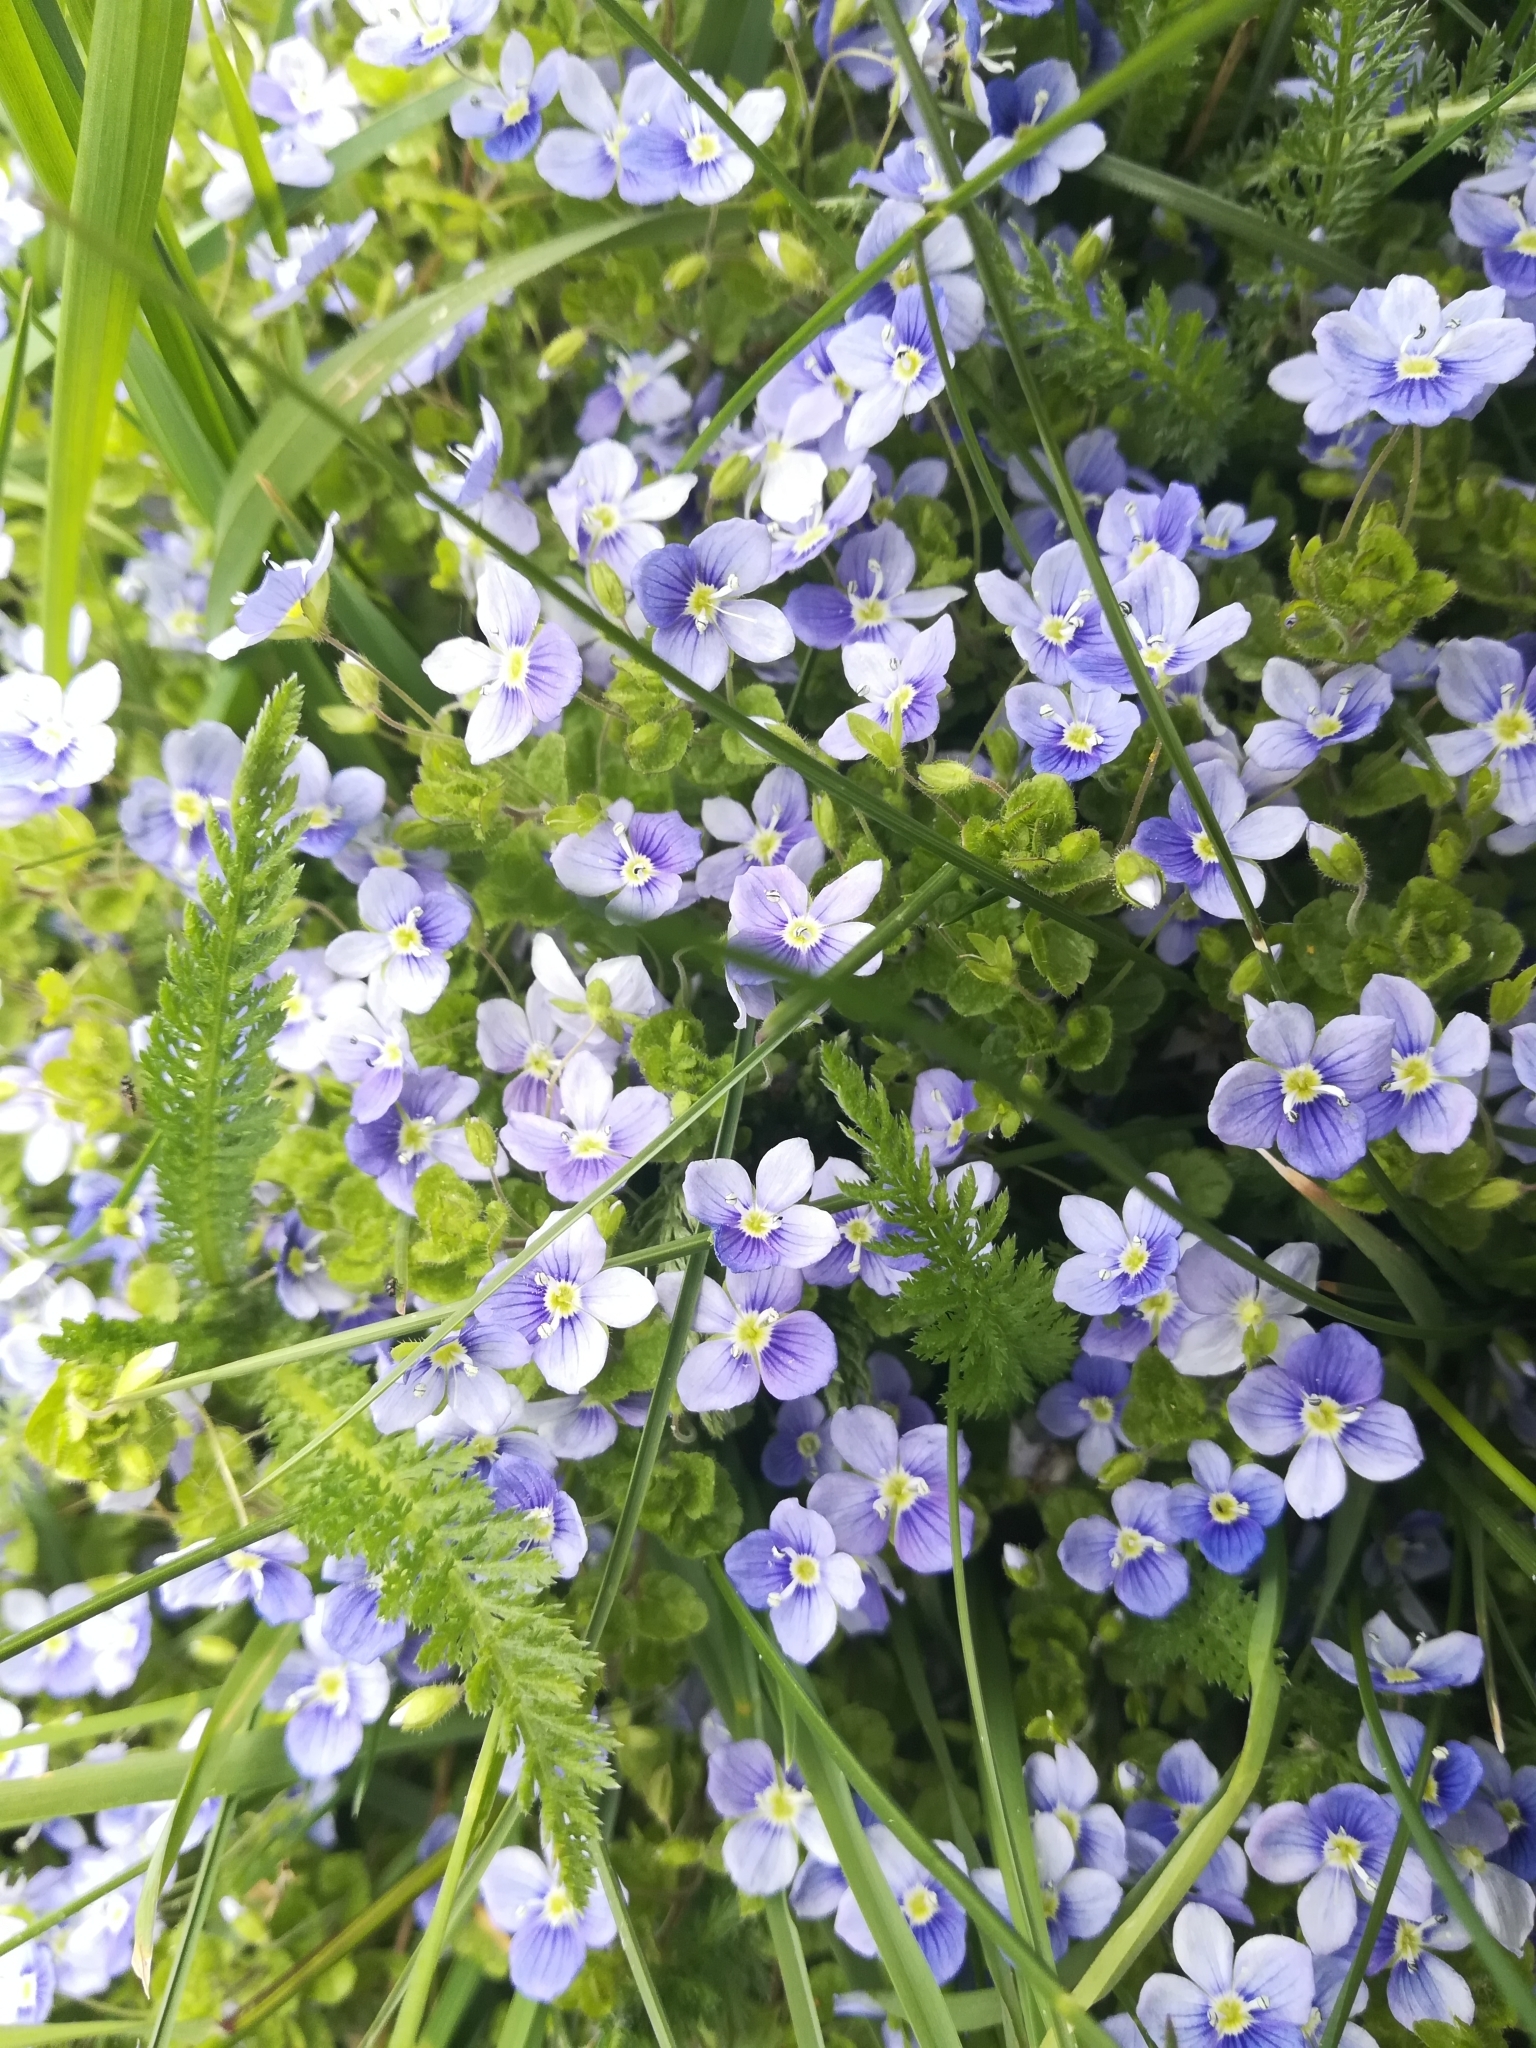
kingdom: Plantae
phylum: Tracheophyta
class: Magnoliopsida
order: Lamiales
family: Plantaginaceae
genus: Veronica
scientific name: Veronica filiformis
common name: Slender speedwell
